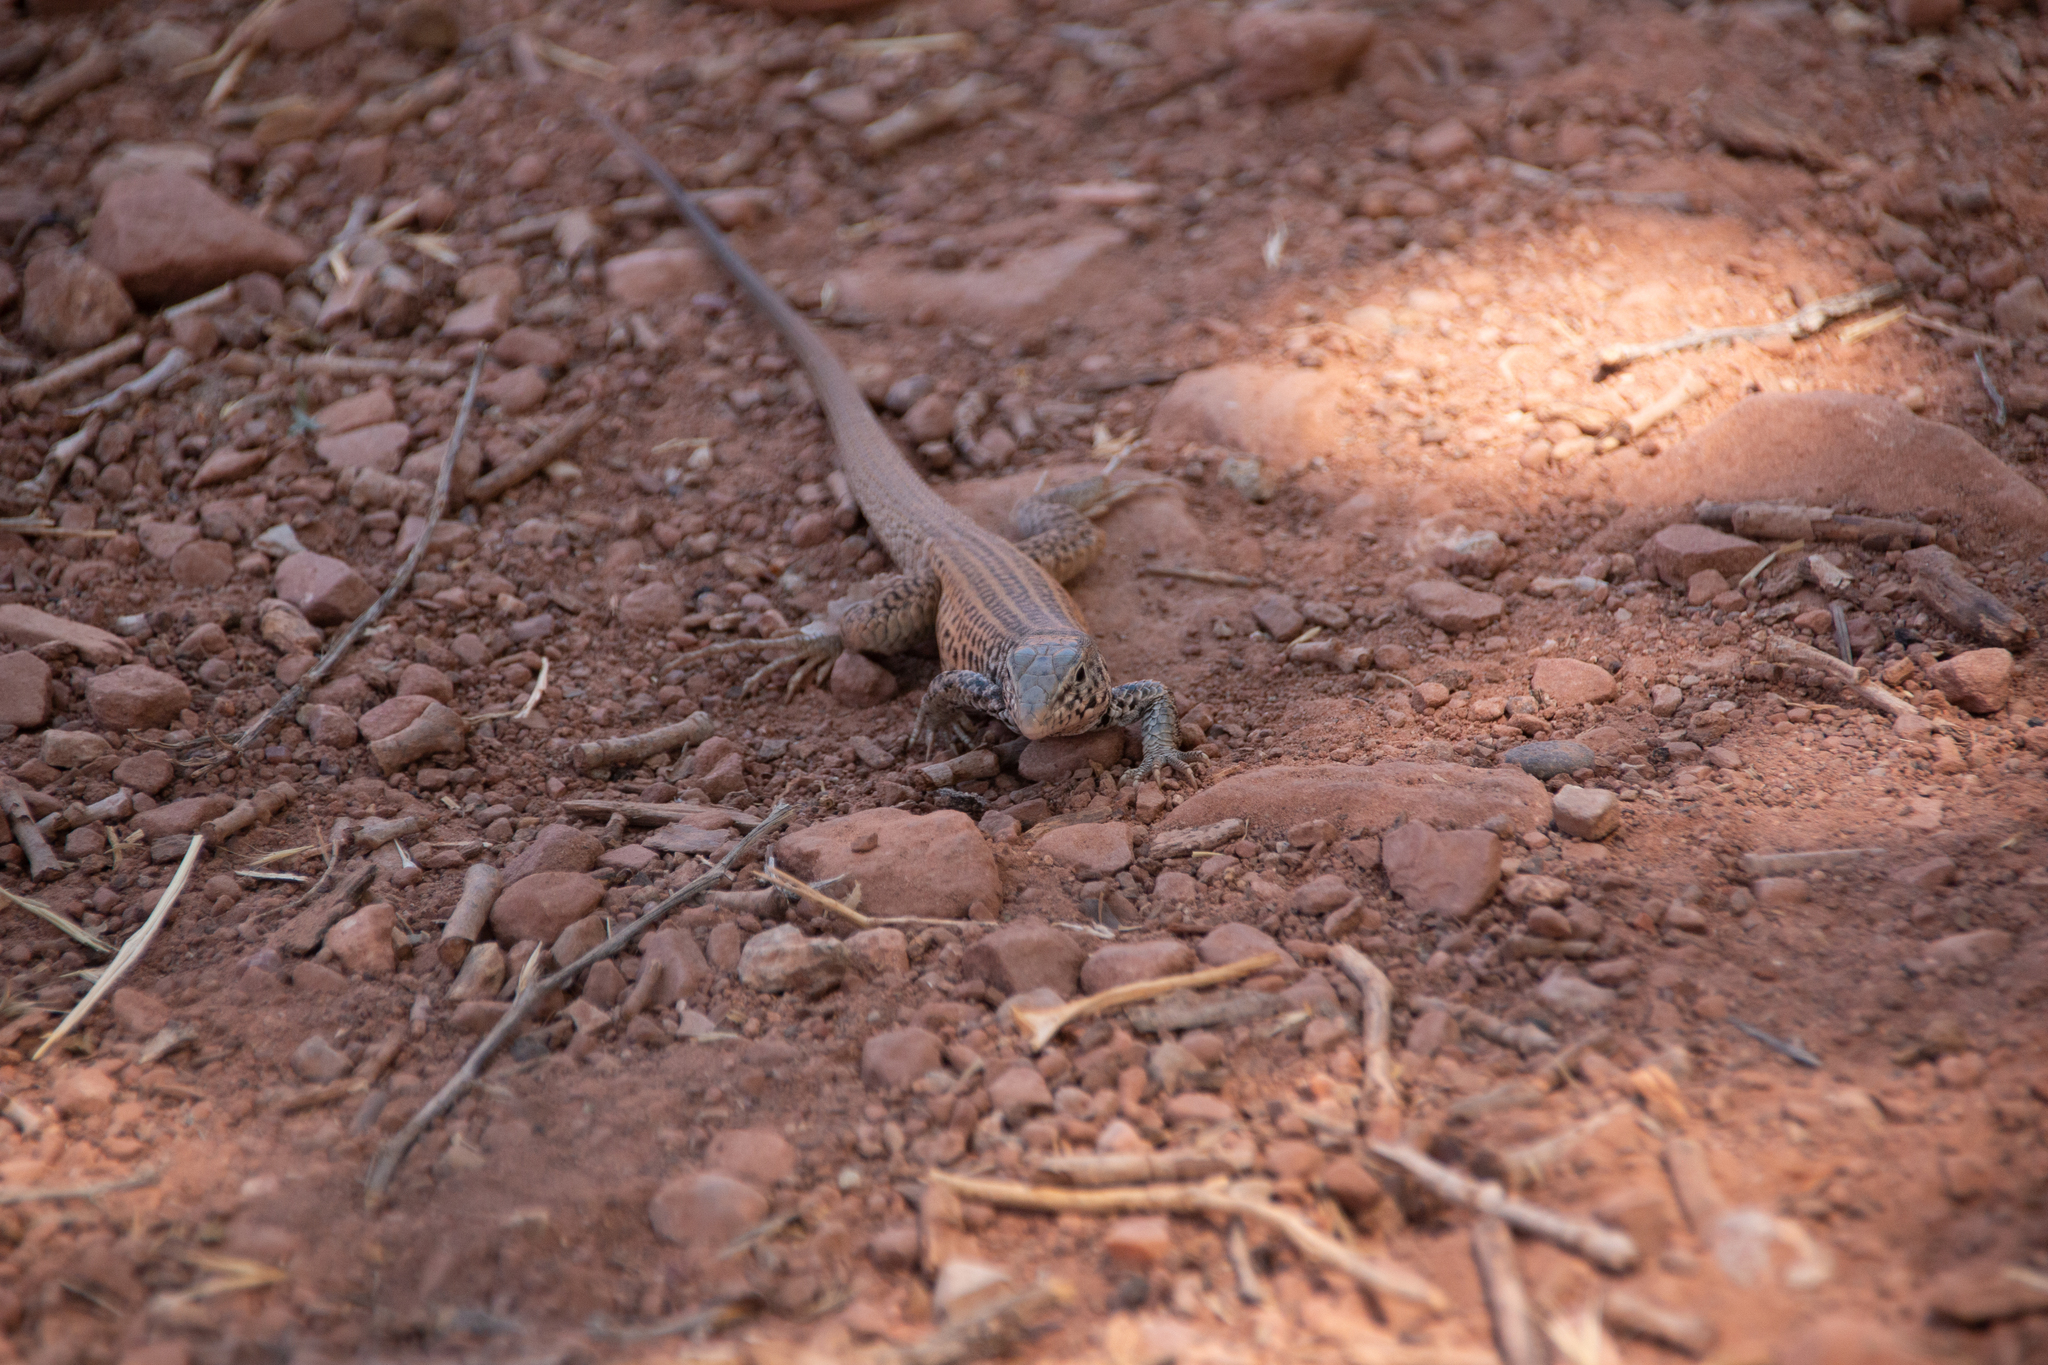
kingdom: Animalia
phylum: Chordata
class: Squamata
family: Teiidae
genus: Aspidoscelis
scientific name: Aspidoscelis tigris
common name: Tiger whiptail
